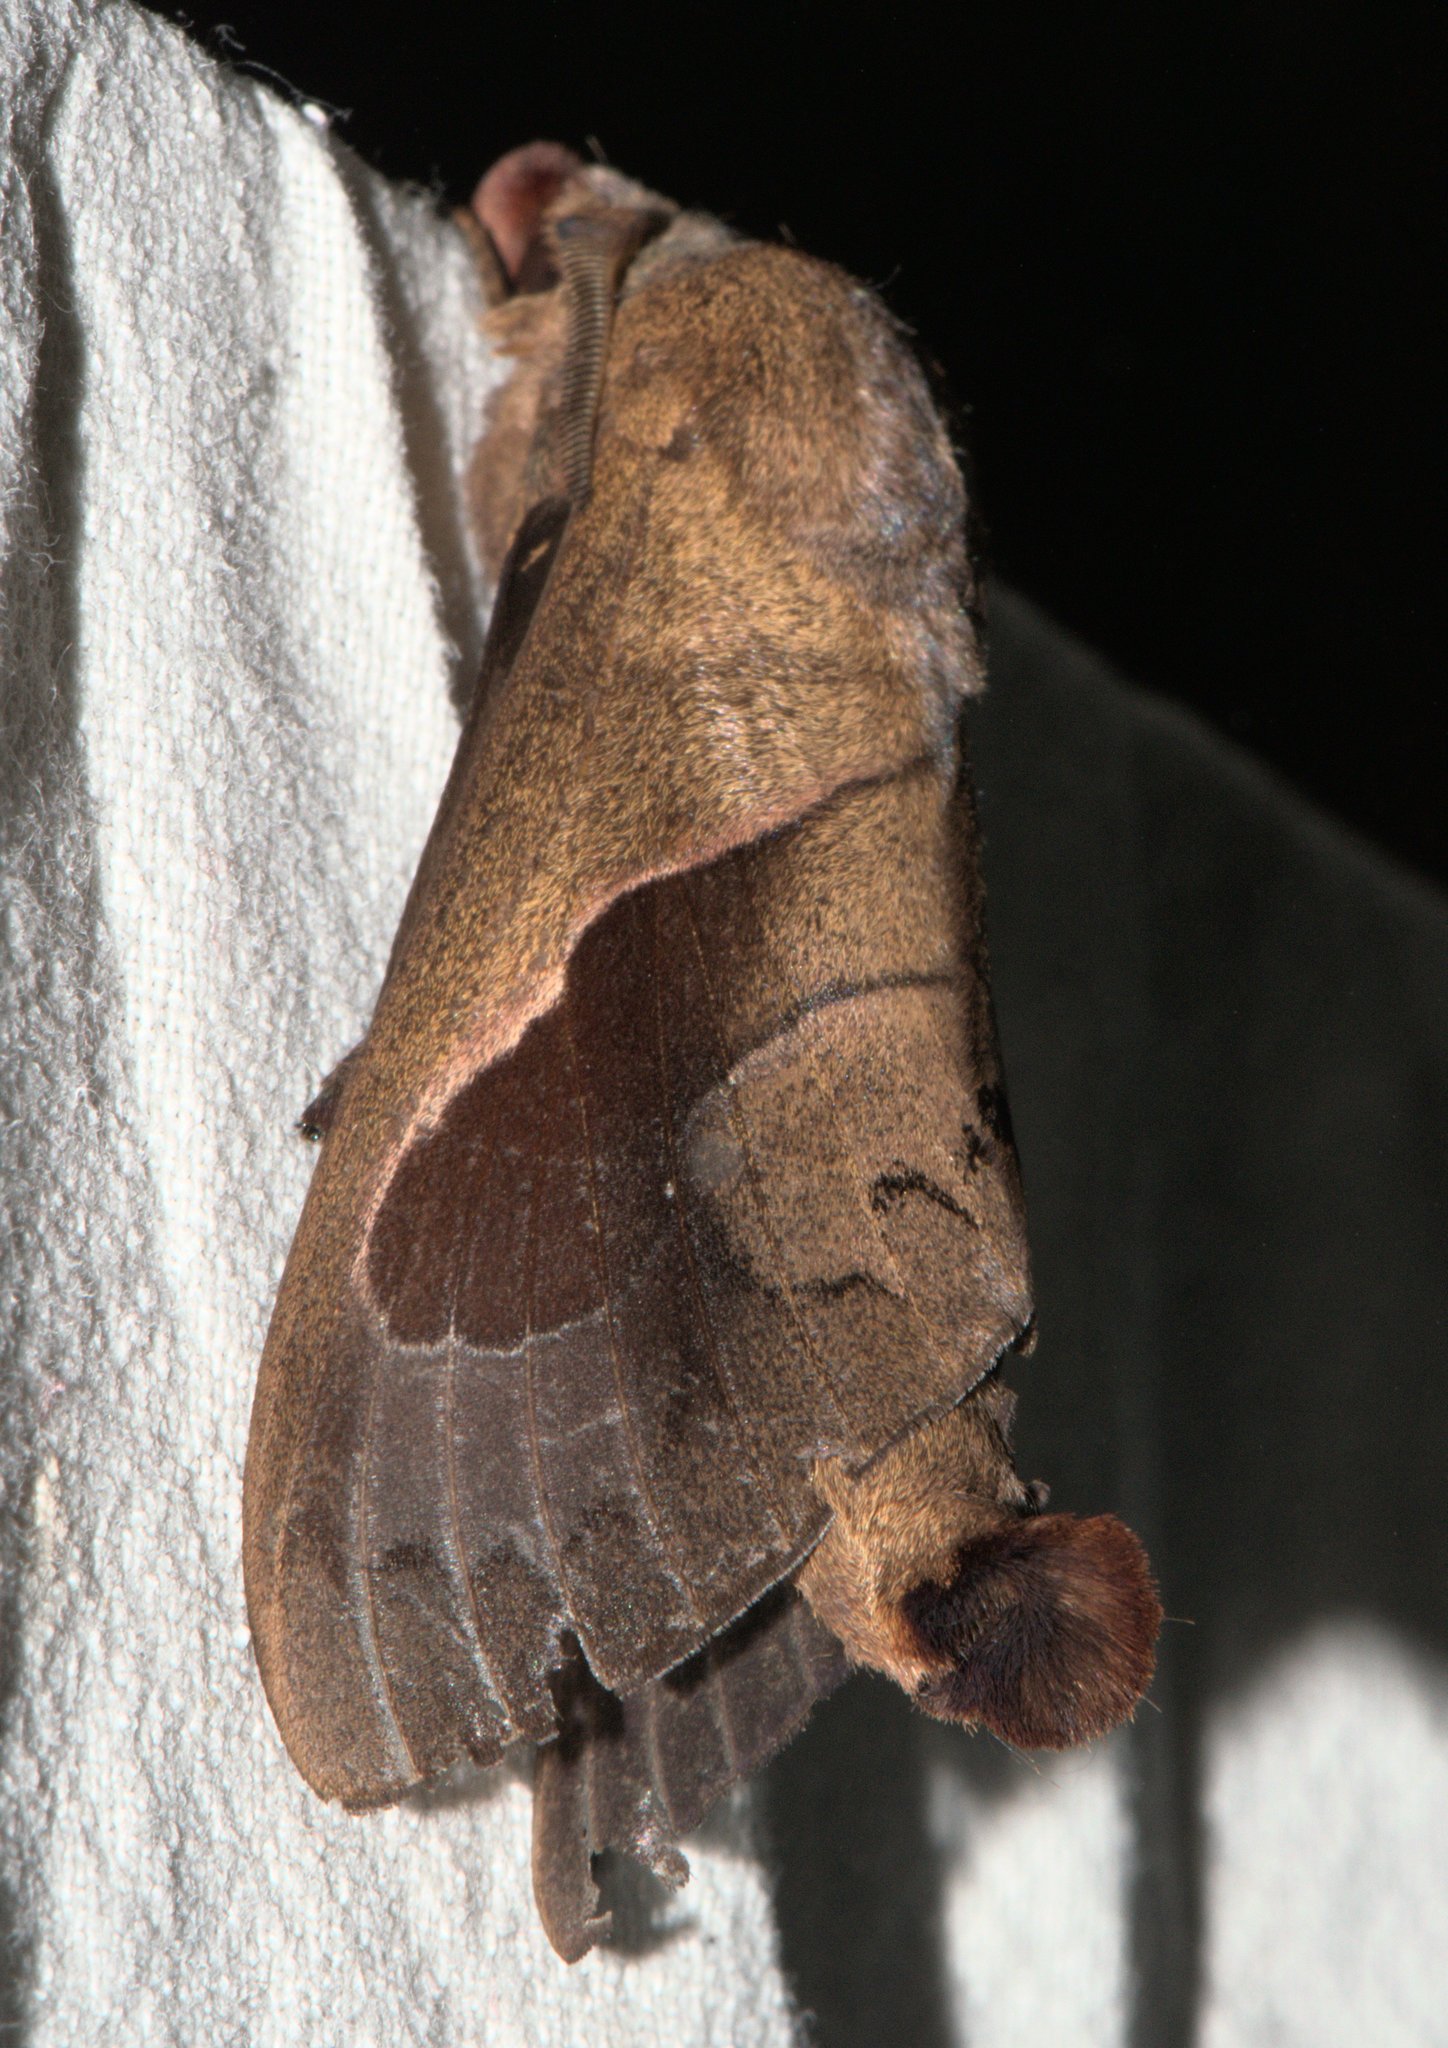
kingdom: Animalia
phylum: Arthropoda
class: Insecta
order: Lepidoptera
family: Lasiocampidae
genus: Paralebeda
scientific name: Paralebeda plagifera
